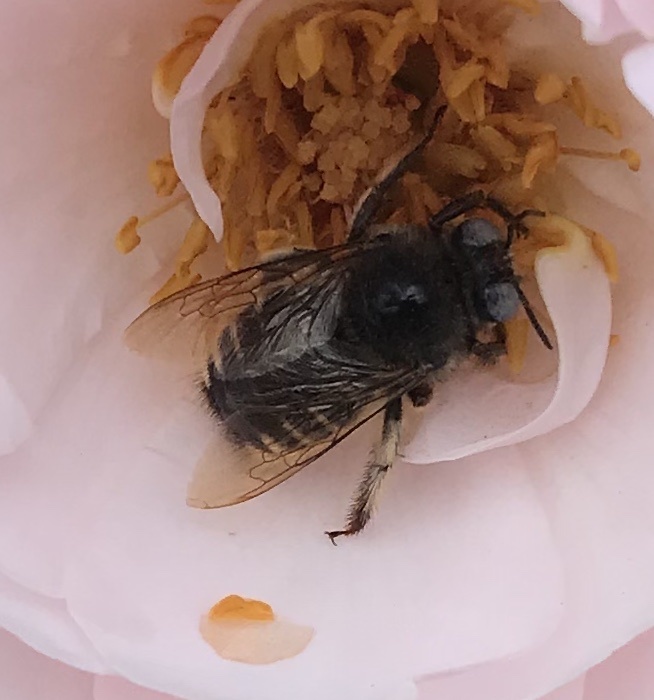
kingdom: Animalia
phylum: Arthropoda
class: Insecta
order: Hymenoptera
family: Apidae
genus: Xylocopa
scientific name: Xylocopa tabaniformis
